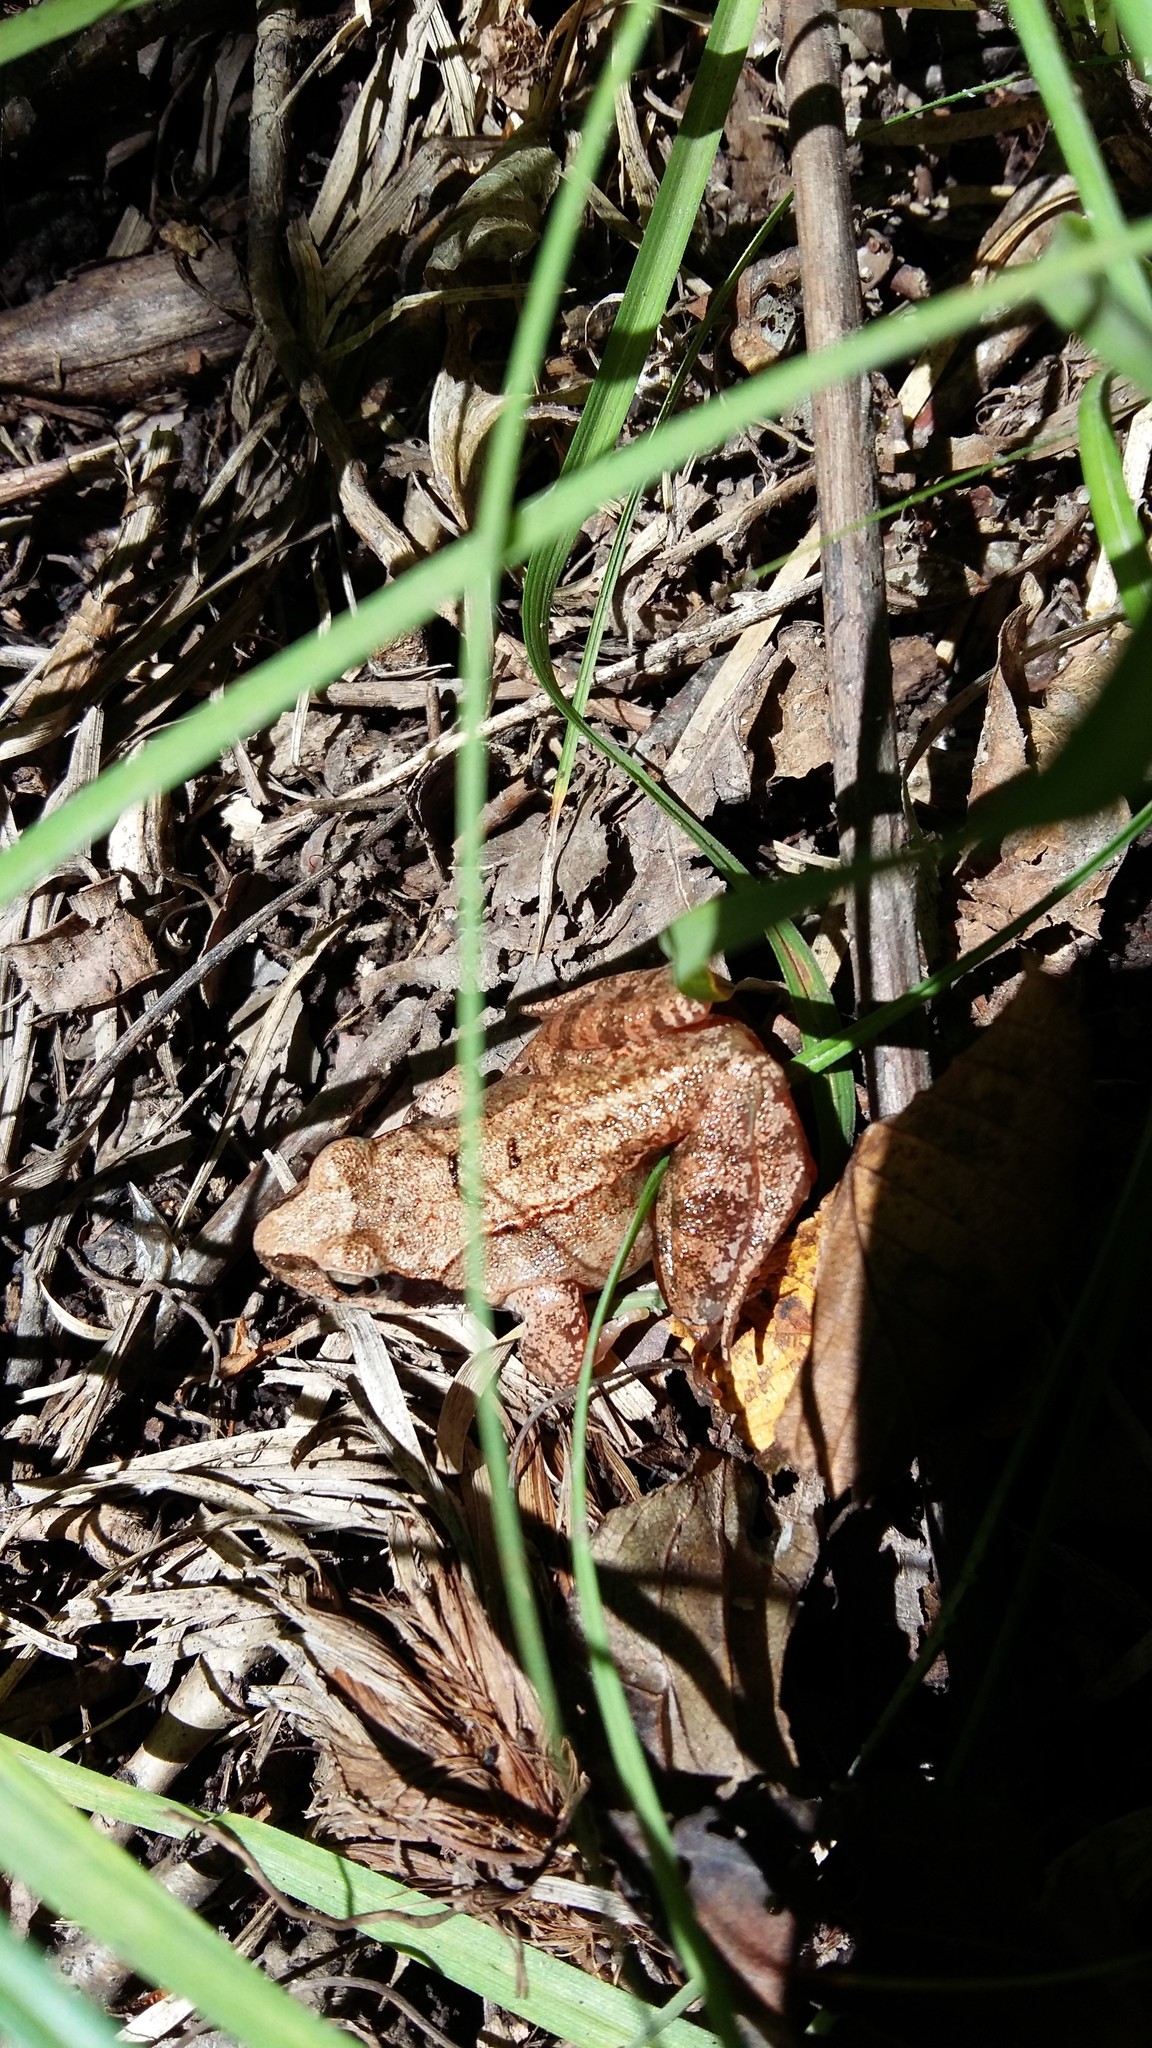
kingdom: Animalia
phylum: Chordata
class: Amphibia
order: Anura
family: Ranidae
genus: Rana
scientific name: Rana dybowskii
